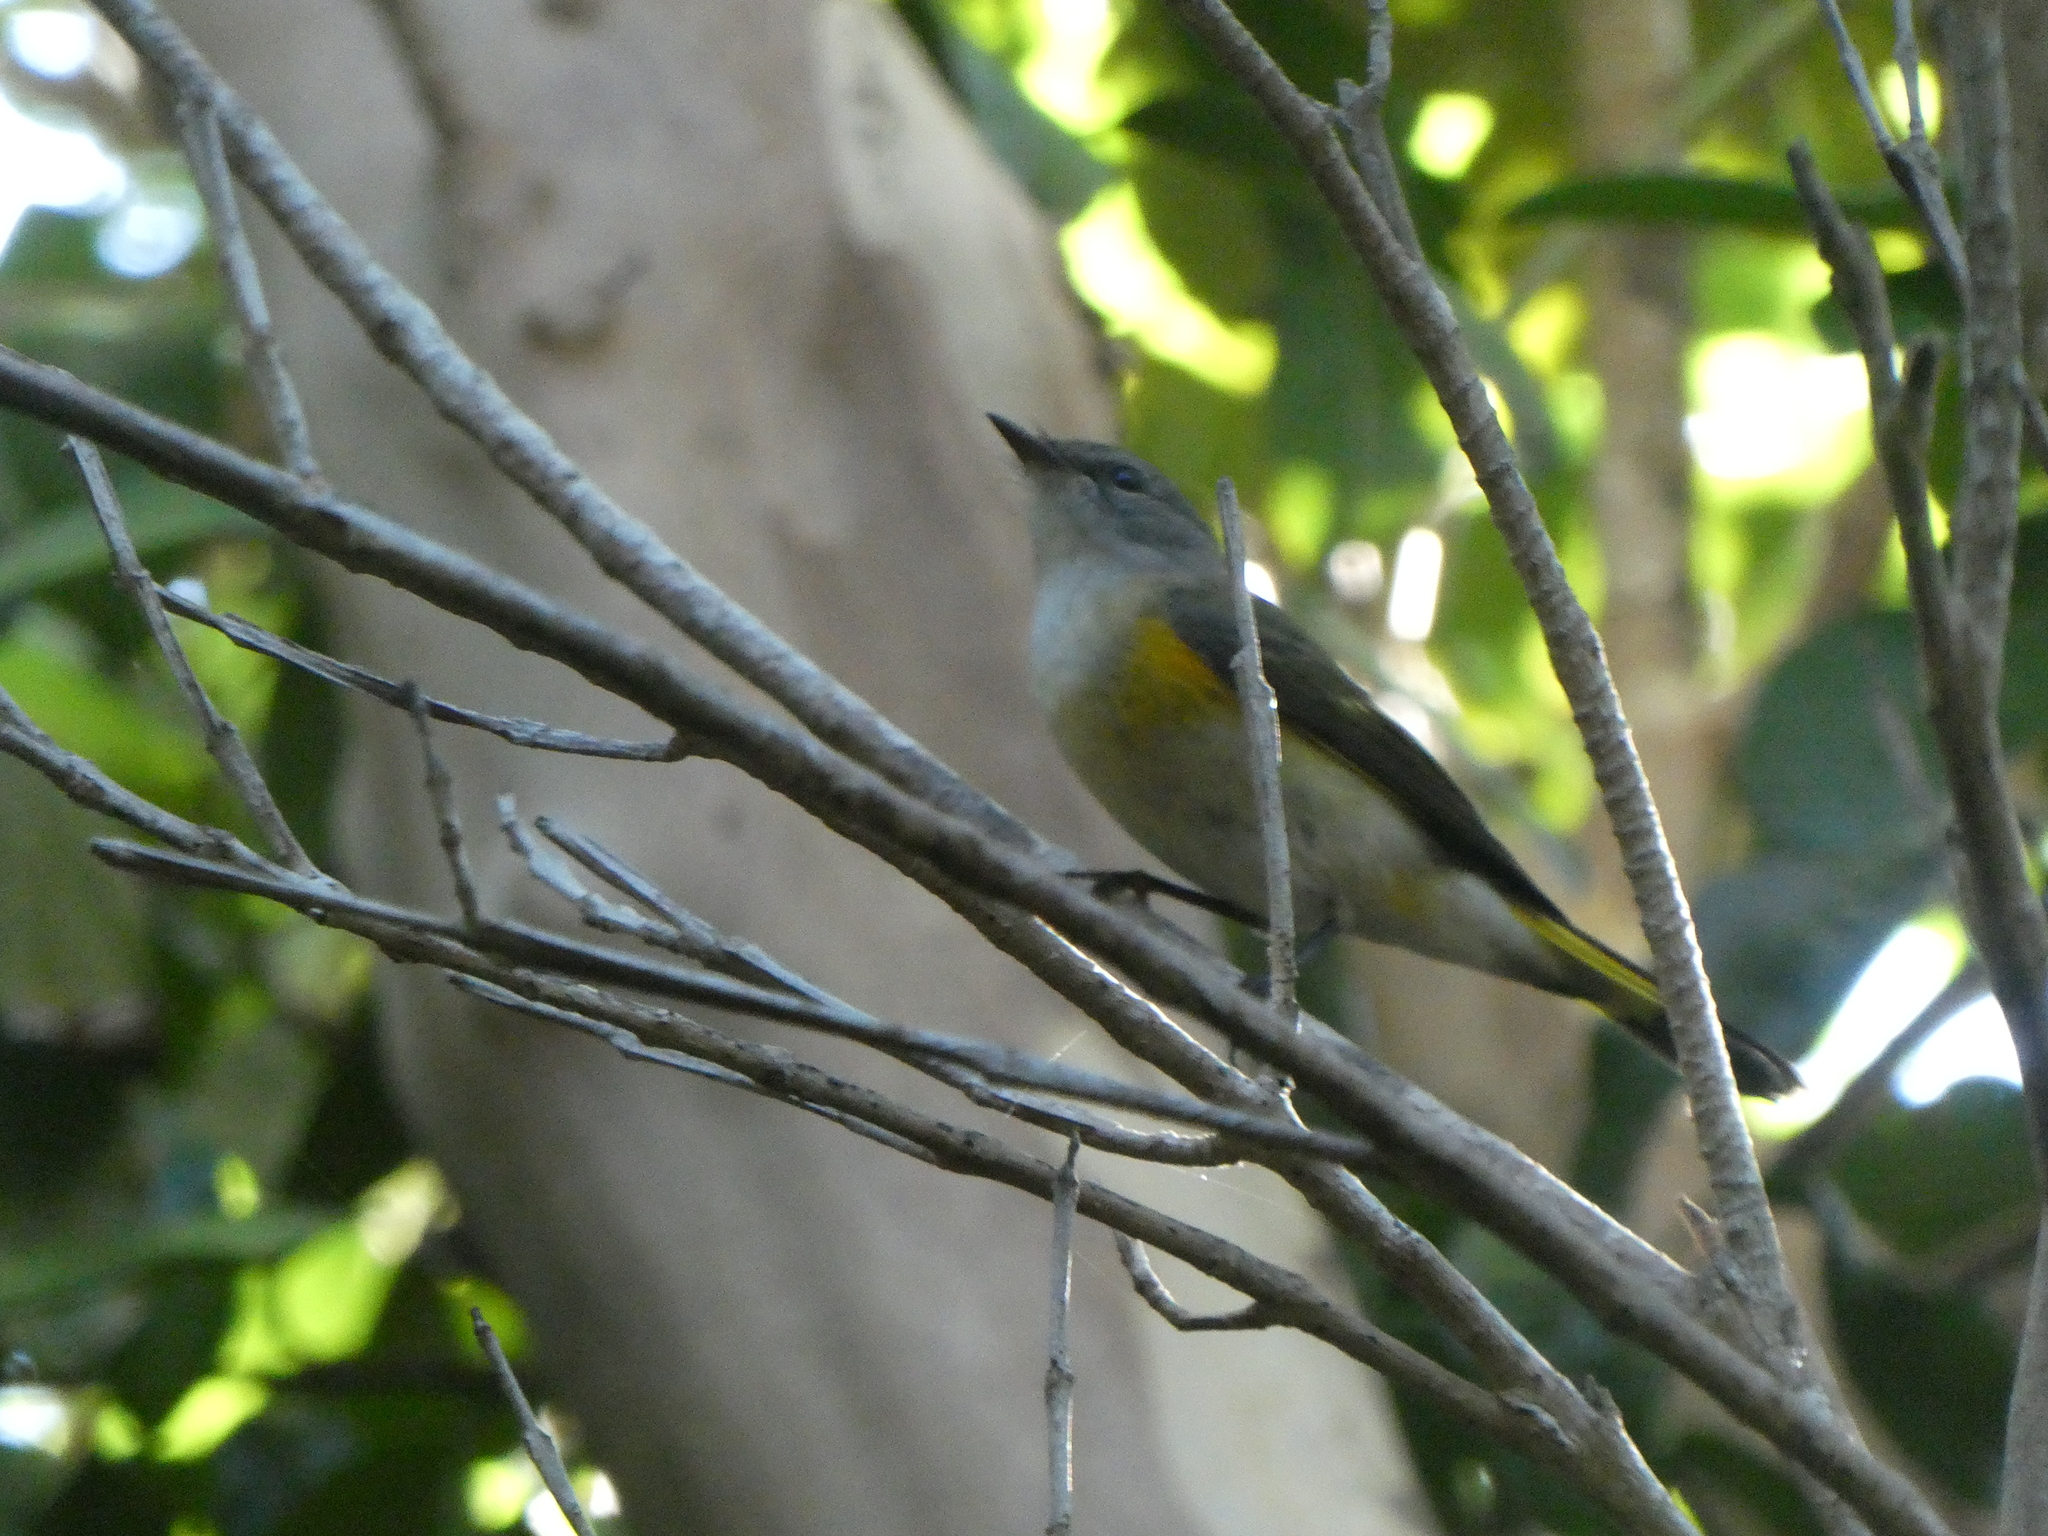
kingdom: Animalia
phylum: Chordata
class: Aves
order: Passeriformes
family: Parulidae
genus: Setophaga
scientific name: Setophaga ruticilla
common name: American redstart
